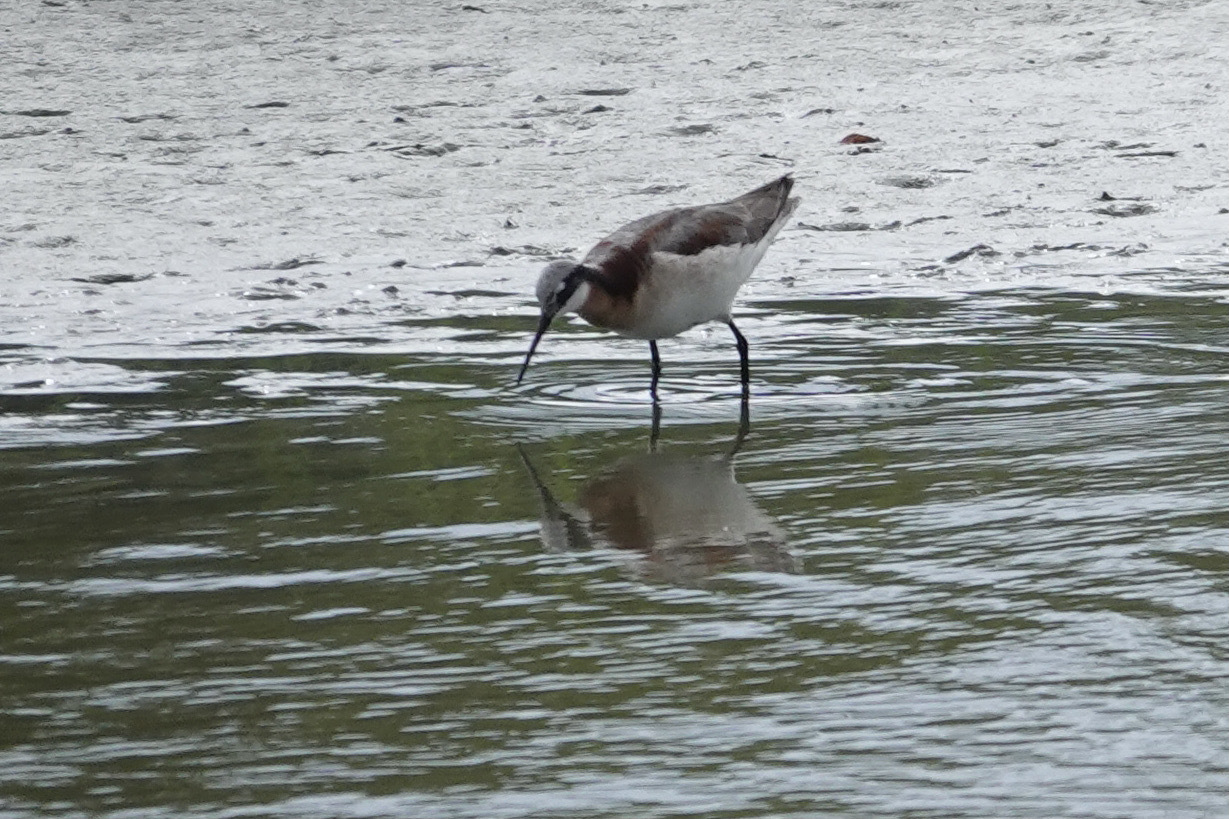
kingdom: Animalia
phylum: Chordata
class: Aves
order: Charadriiformes
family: Scolopacidae
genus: Phalaropus
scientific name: Phalaropus tricolor
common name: Wilson's phalarope
